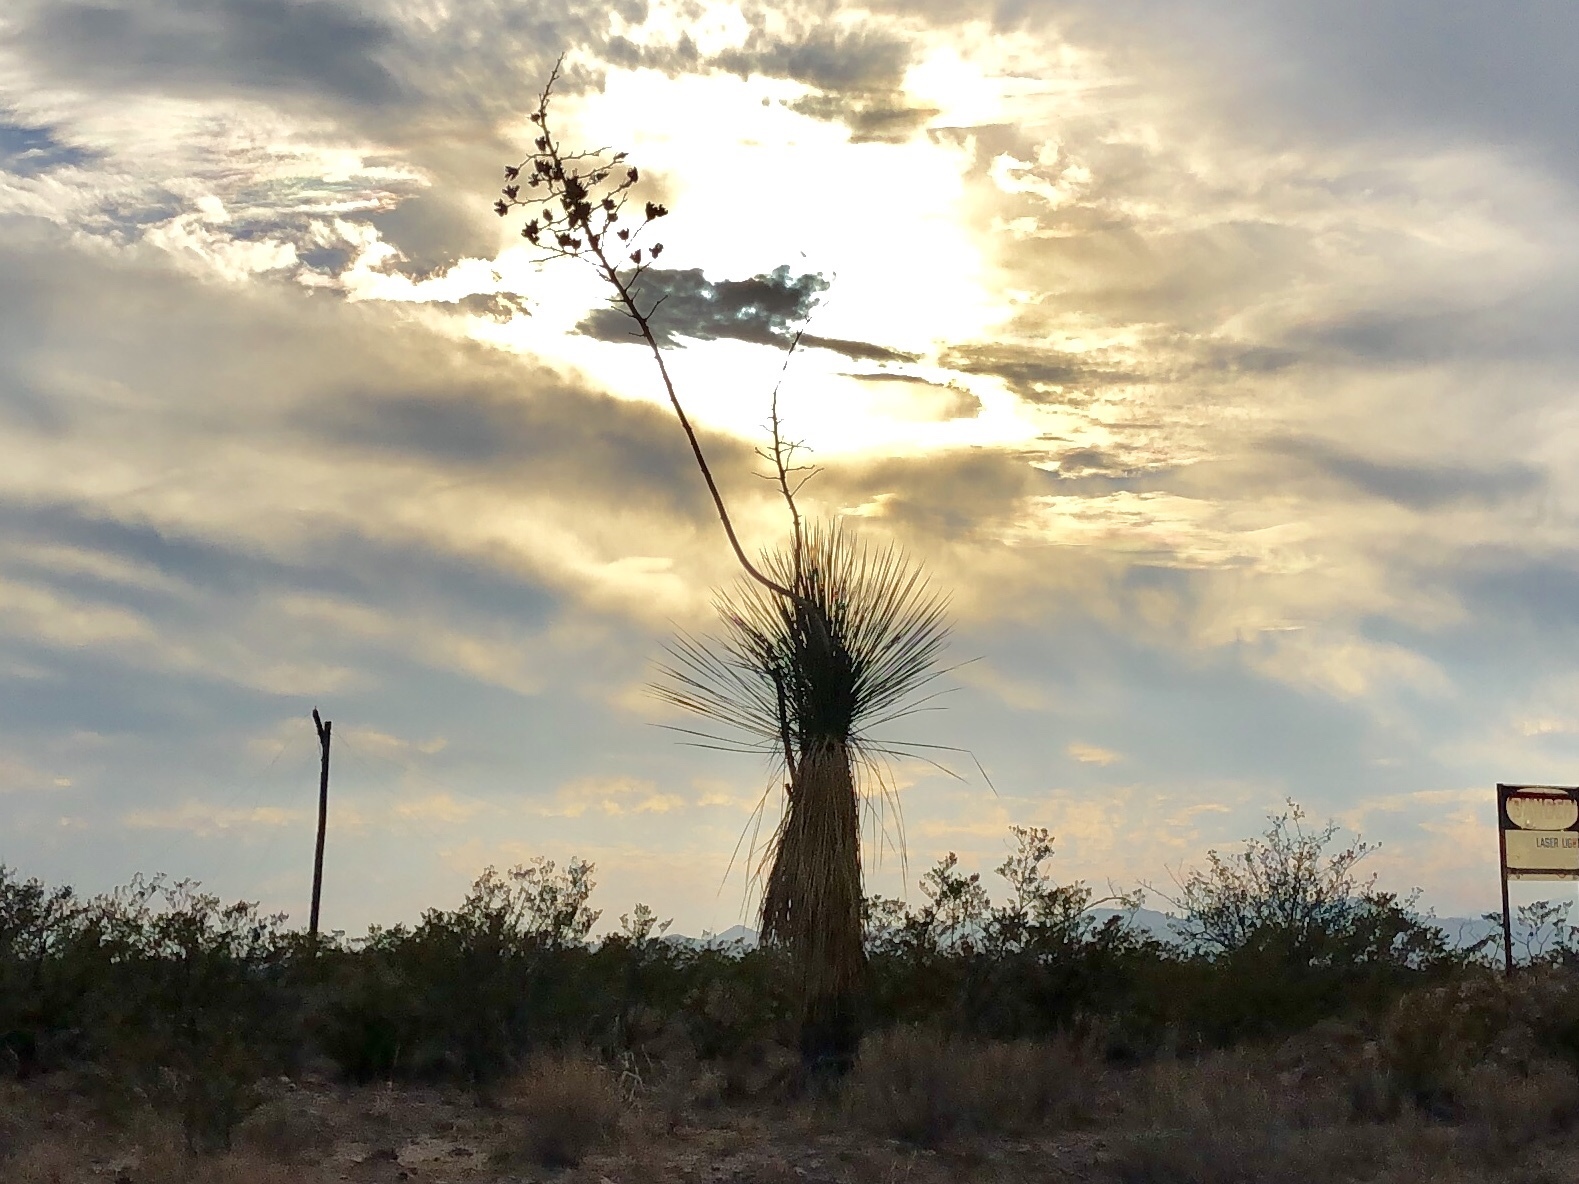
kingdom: Plantae
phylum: Tracheophyta
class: Liliopsida
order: Asparagales
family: Asparagaceae
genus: Yucca
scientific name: Yucca elata
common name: Palmella
